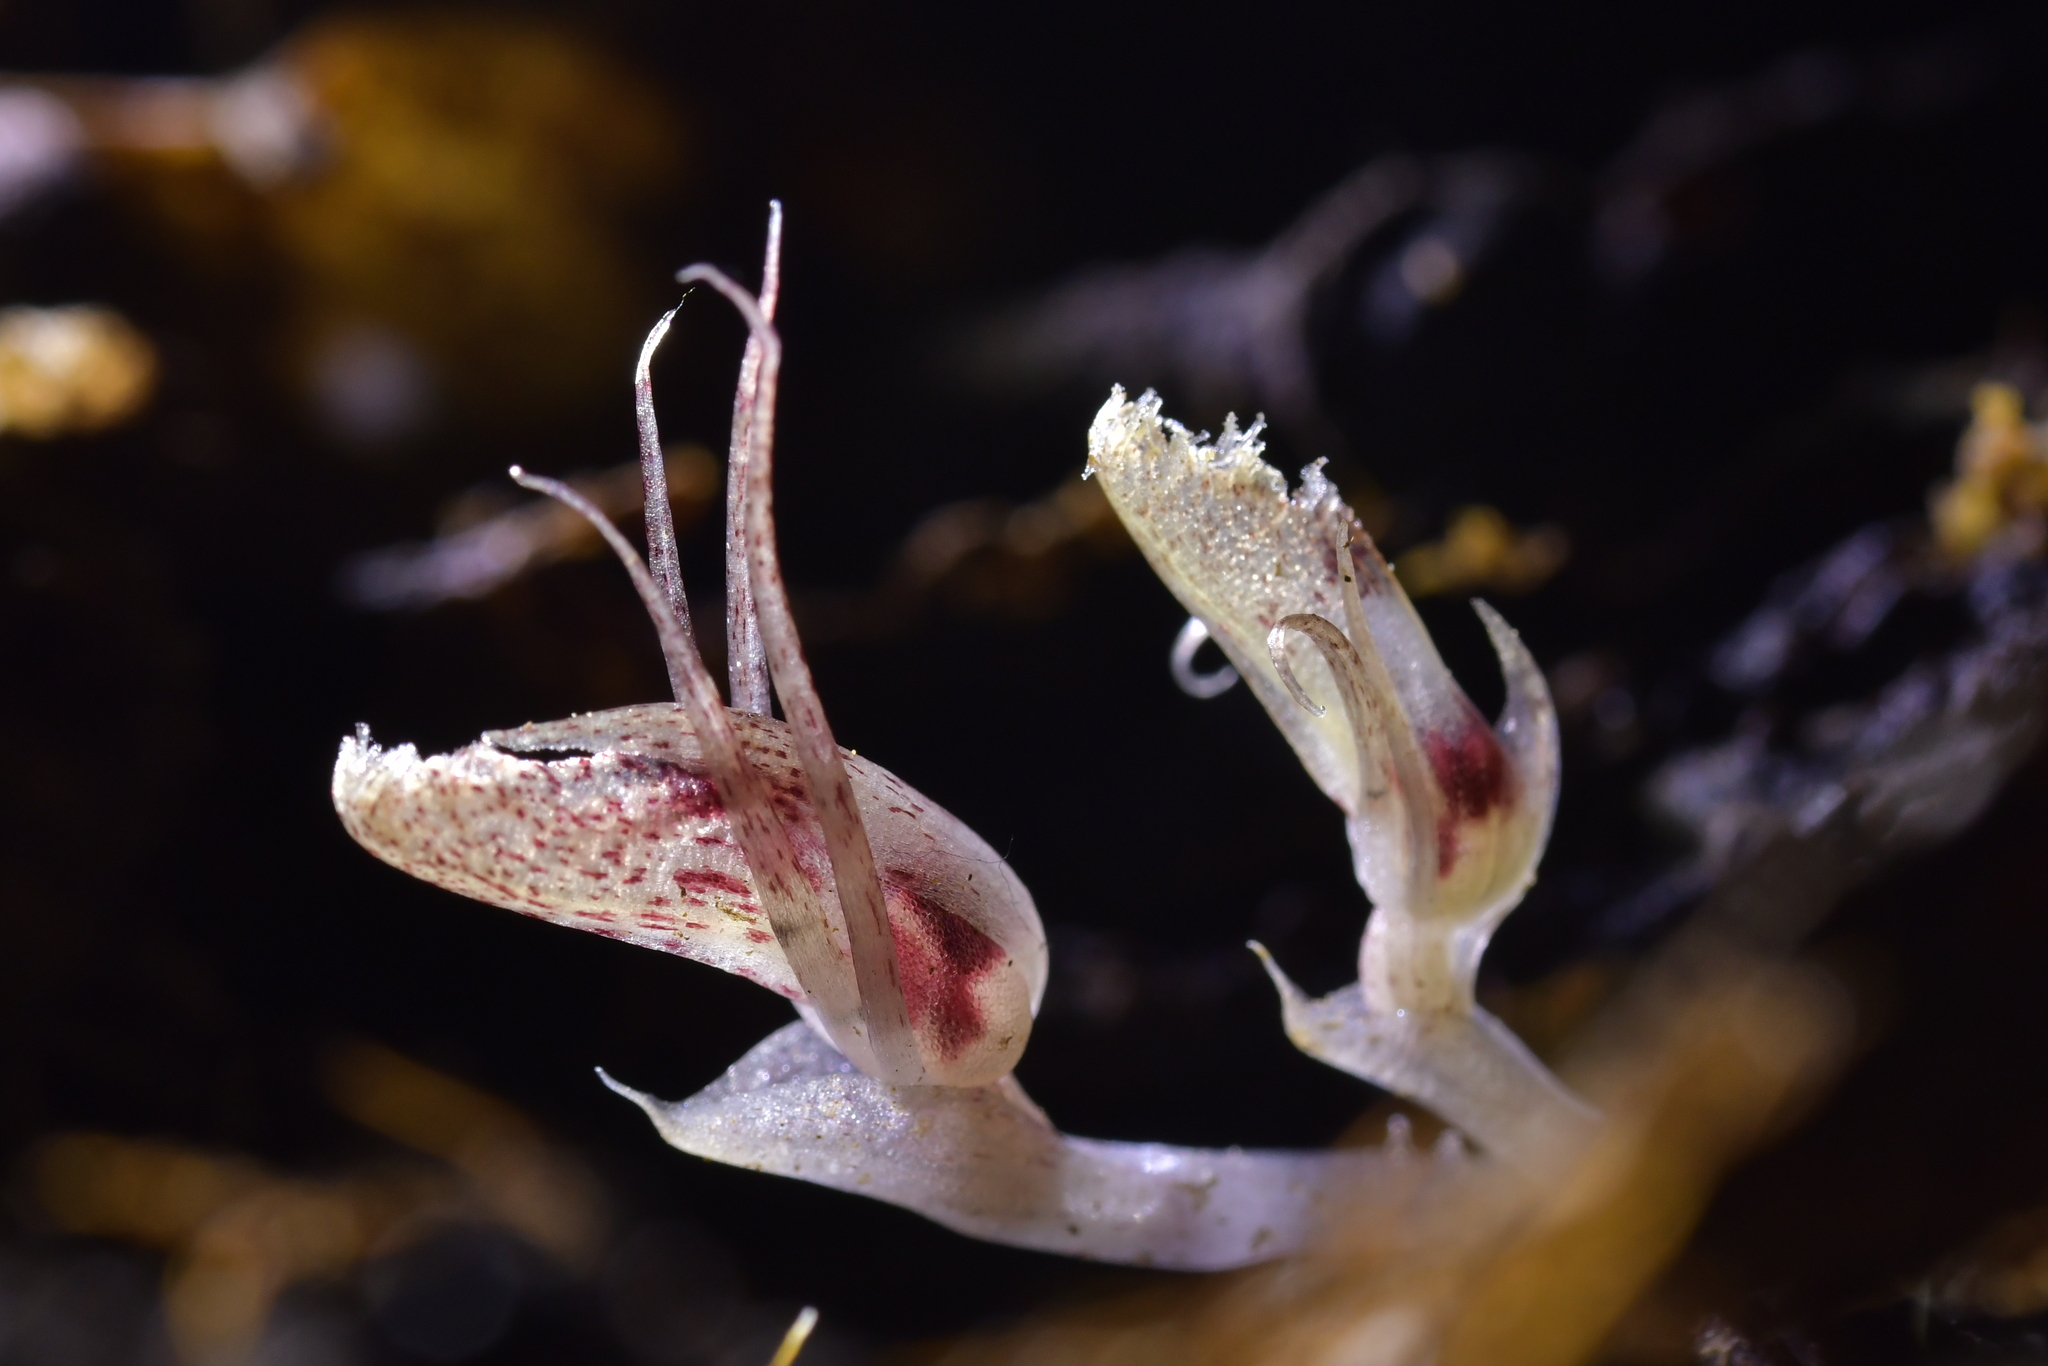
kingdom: Plantae
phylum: Tracheophyta
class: Liliopsida
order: Asparagales
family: Orchidaceae
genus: Corybas
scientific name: Corybas cryptanthus
